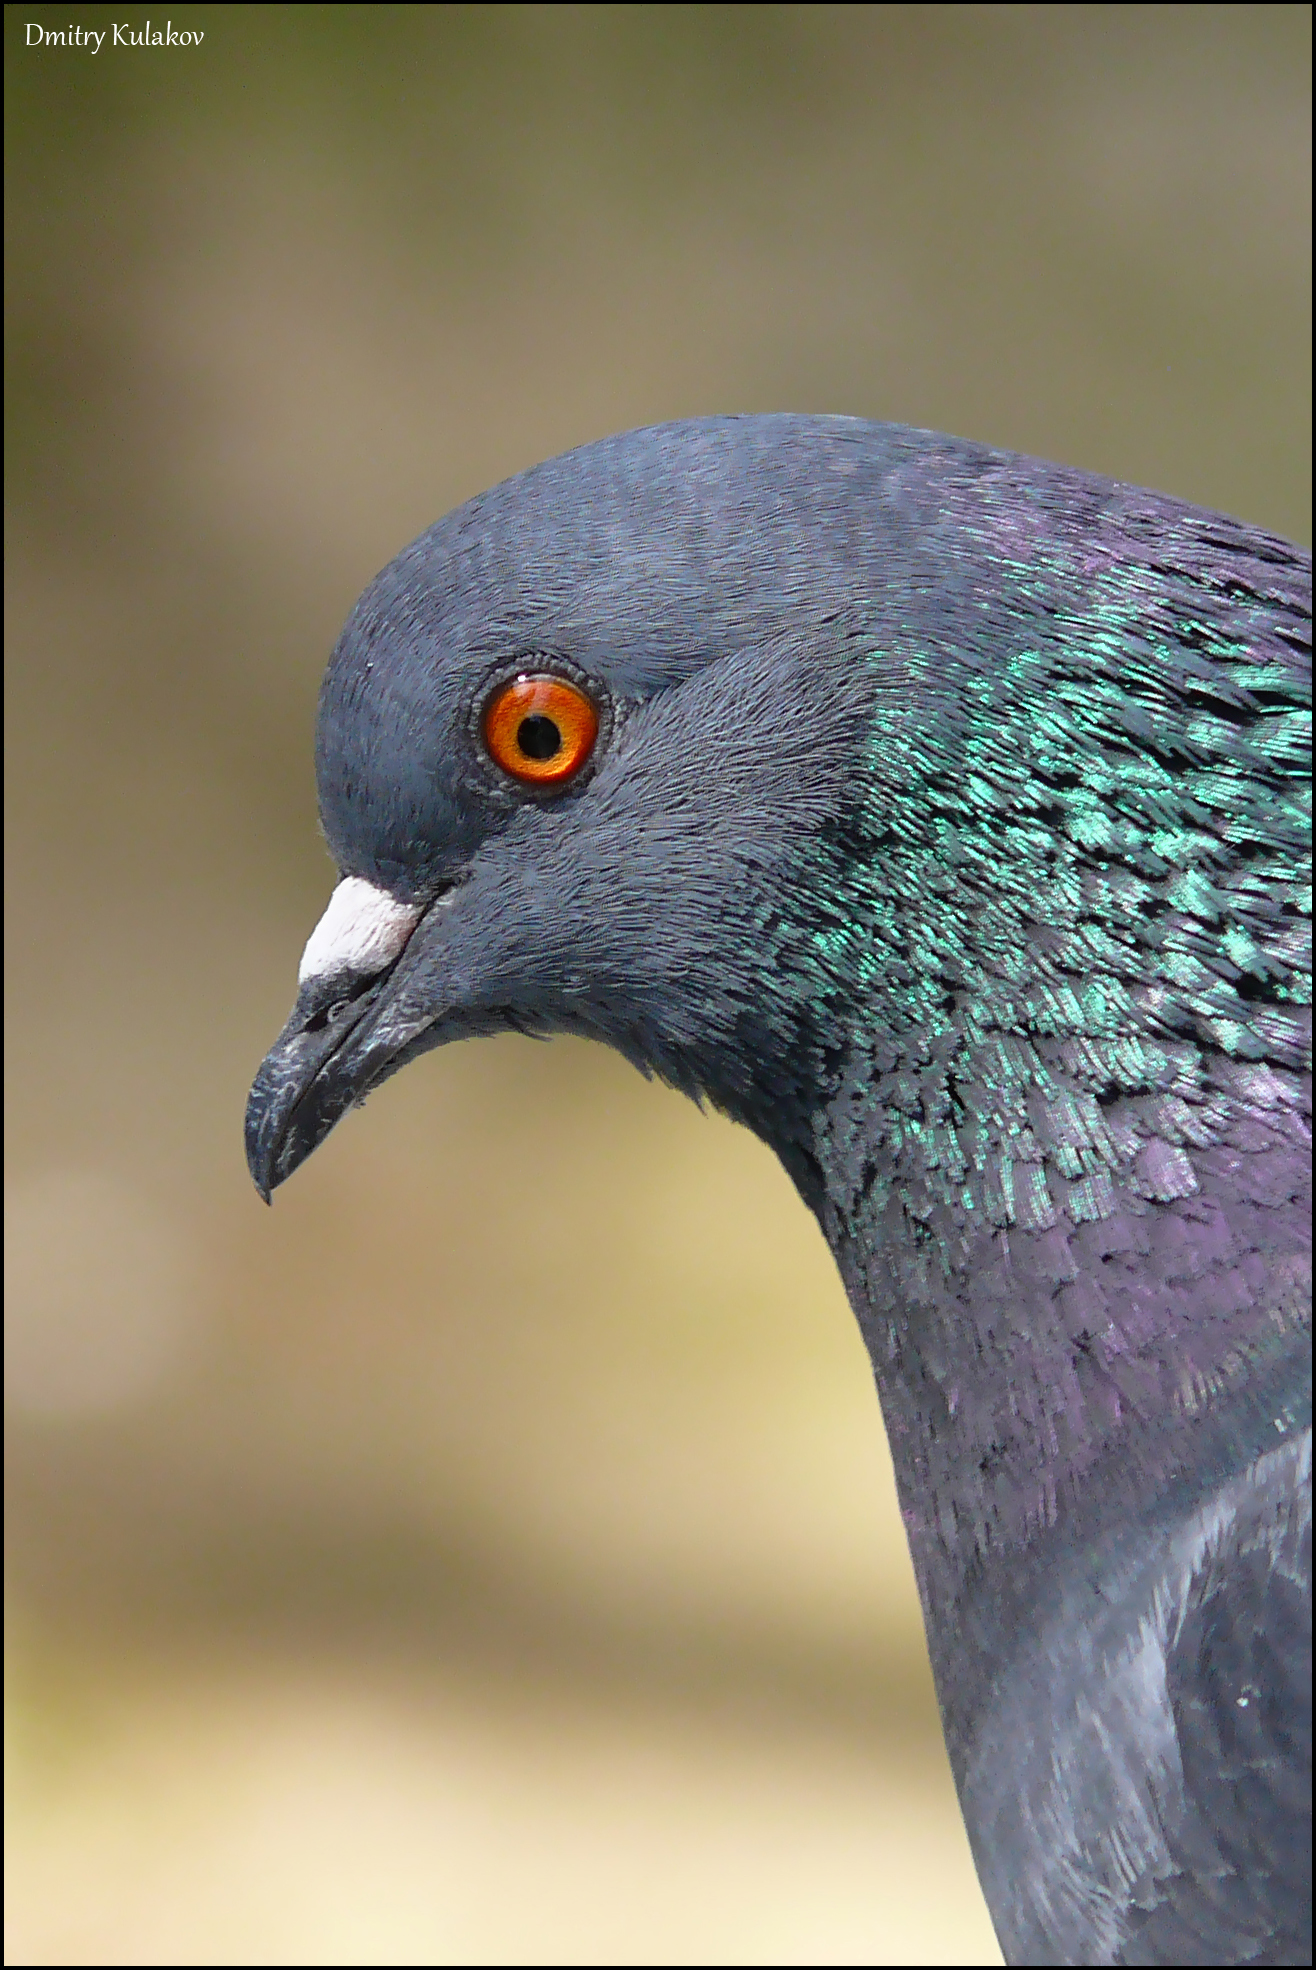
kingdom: Animalia
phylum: Chordata
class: Aves
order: Columbiformes
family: Columbidae
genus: Columba
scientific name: Columba livia
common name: Rock pigeon
